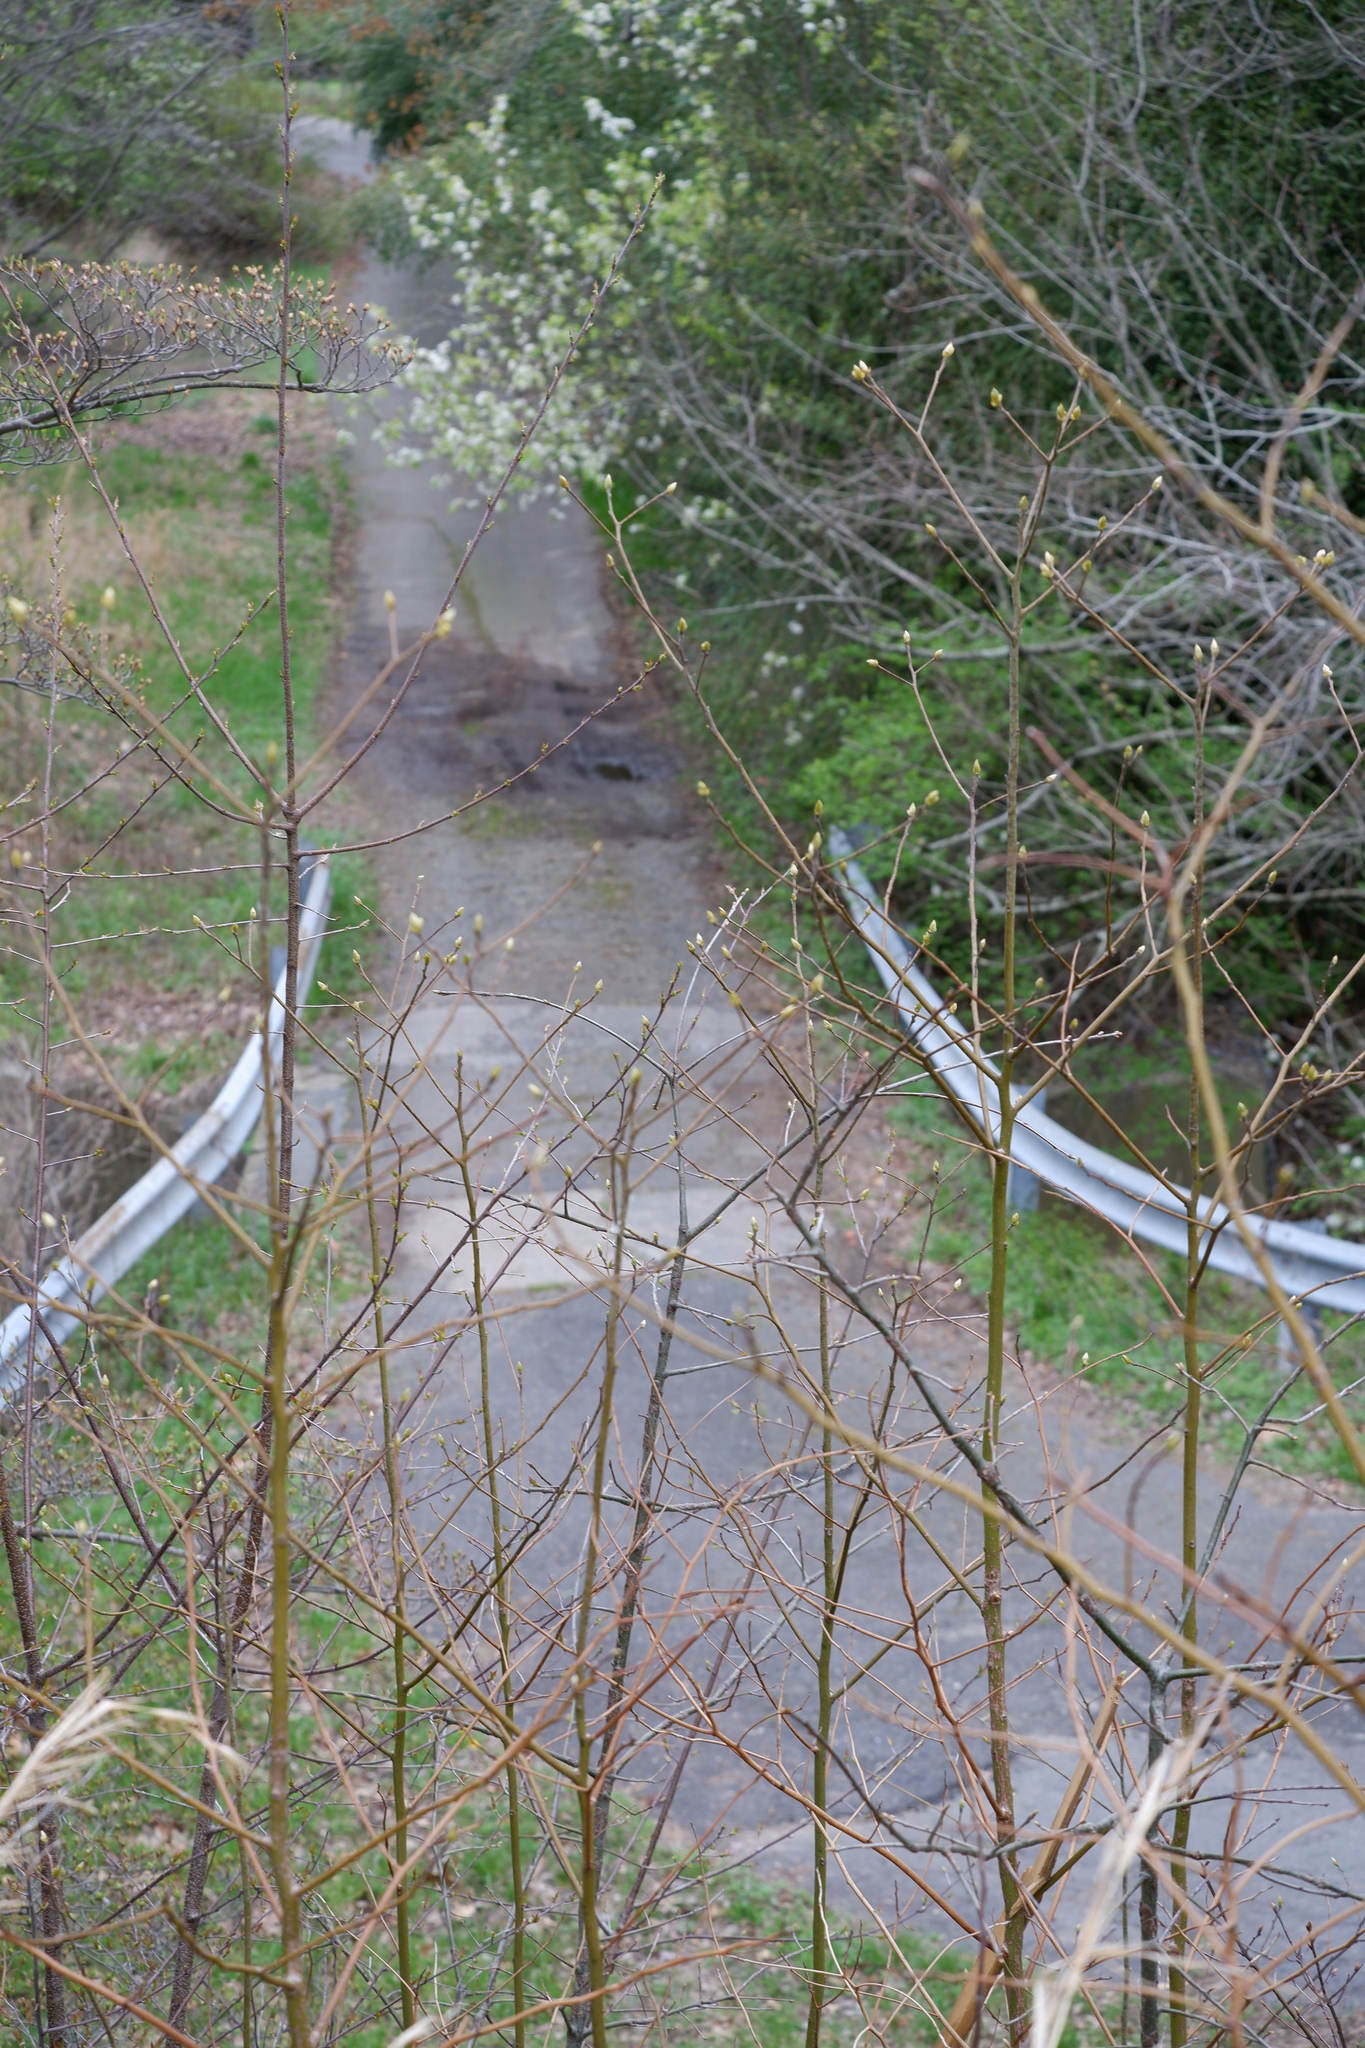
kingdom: Plantae
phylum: Tracheophyta
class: Magnoliopsida
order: Laurales
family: Lauraceae
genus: Sassafras
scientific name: Sassafras albidum
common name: Sassafras
